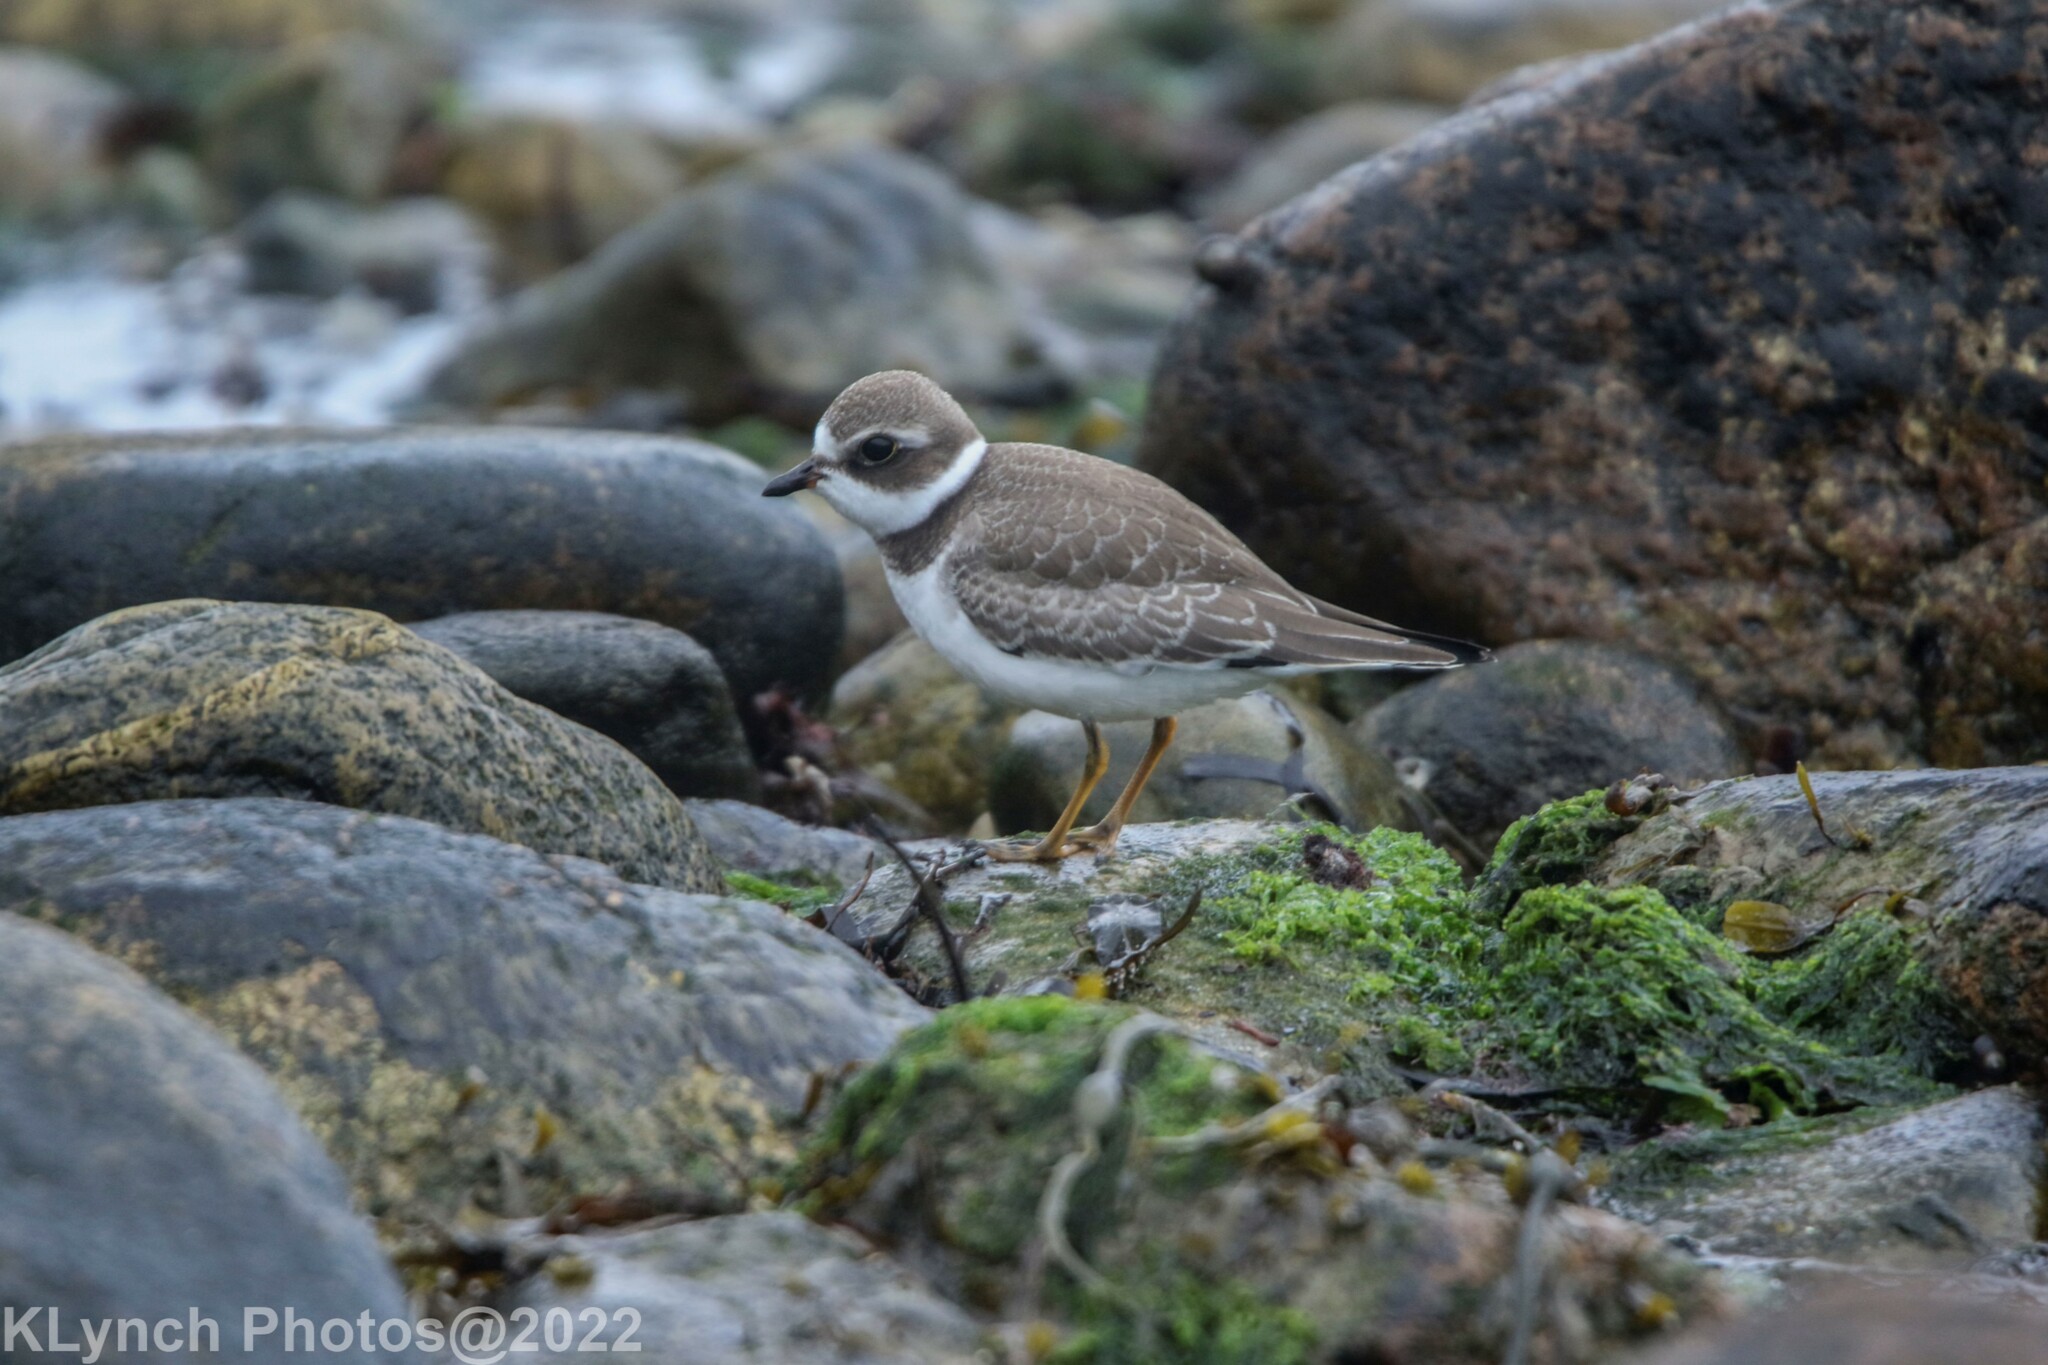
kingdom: Animalia
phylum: Chordata
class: Aves
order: Charadriiformes
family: Charadriidae
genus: Charadrius
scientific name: Charadrius semipalmatus
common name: Semipalmated plover
